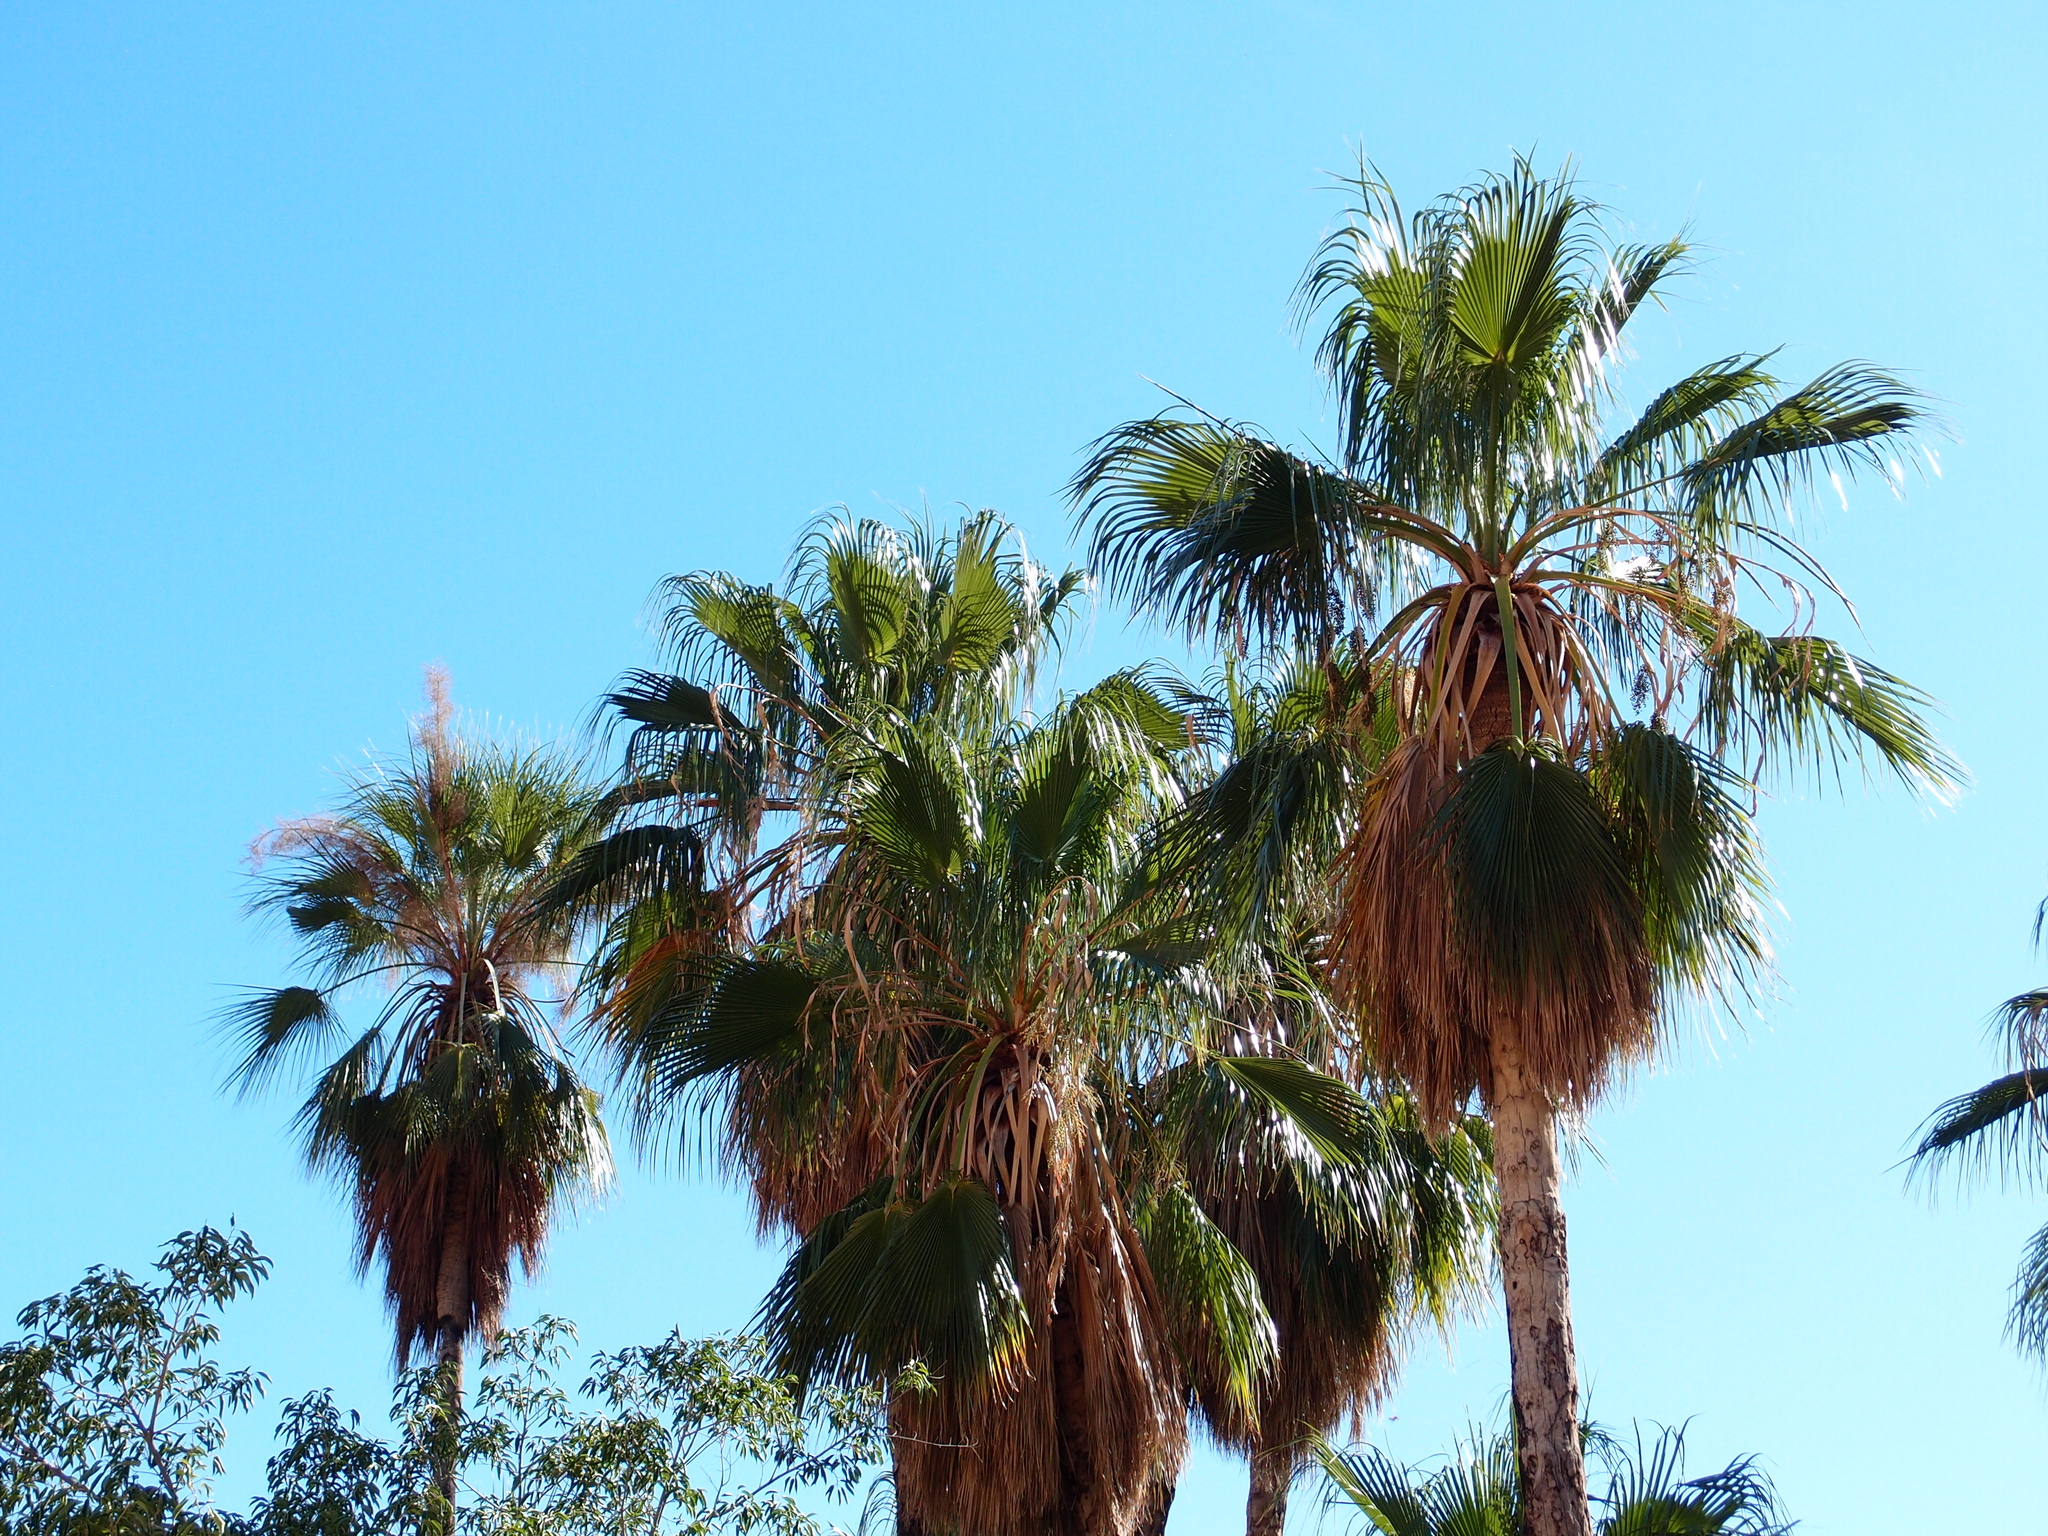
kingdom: Plantae
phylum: Tracheophyta
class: Liliopsida
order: Arecales
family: Arecaceae
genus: Washingtonia
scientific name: Washingtonia robusta
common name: Mexican fan palm
